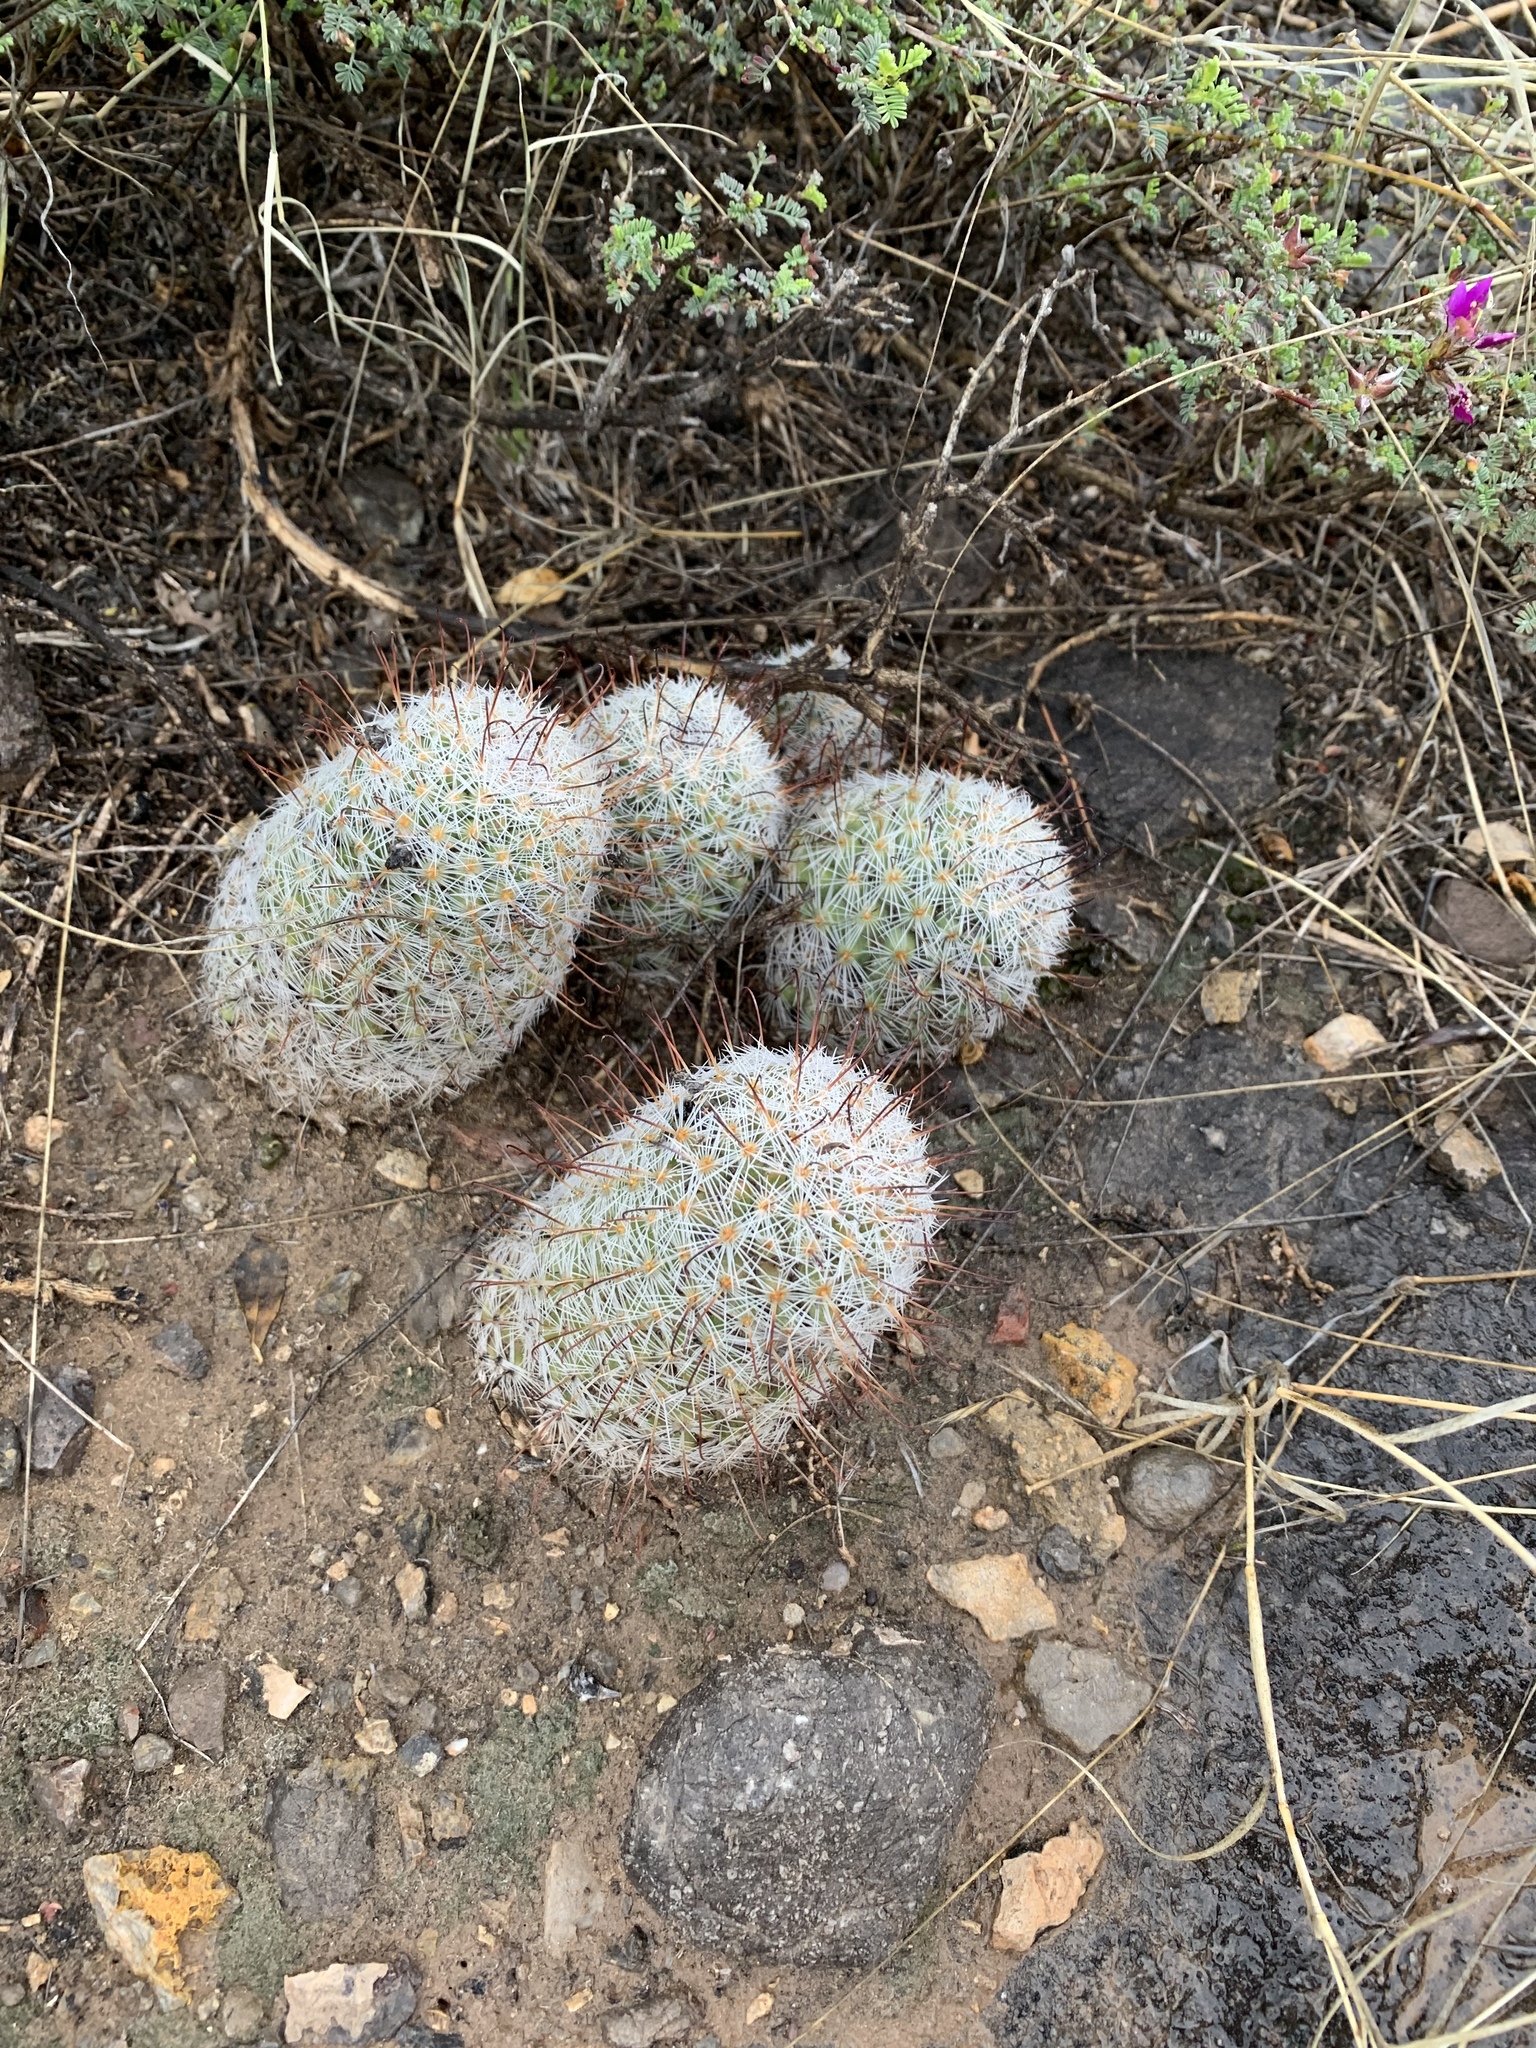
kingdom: Plantae
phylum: Tracheophyta
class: Magnoliopsida
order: Caryophyllales
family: Cactaceae
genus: Cochemiea
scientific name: Cochemiea grahamii
